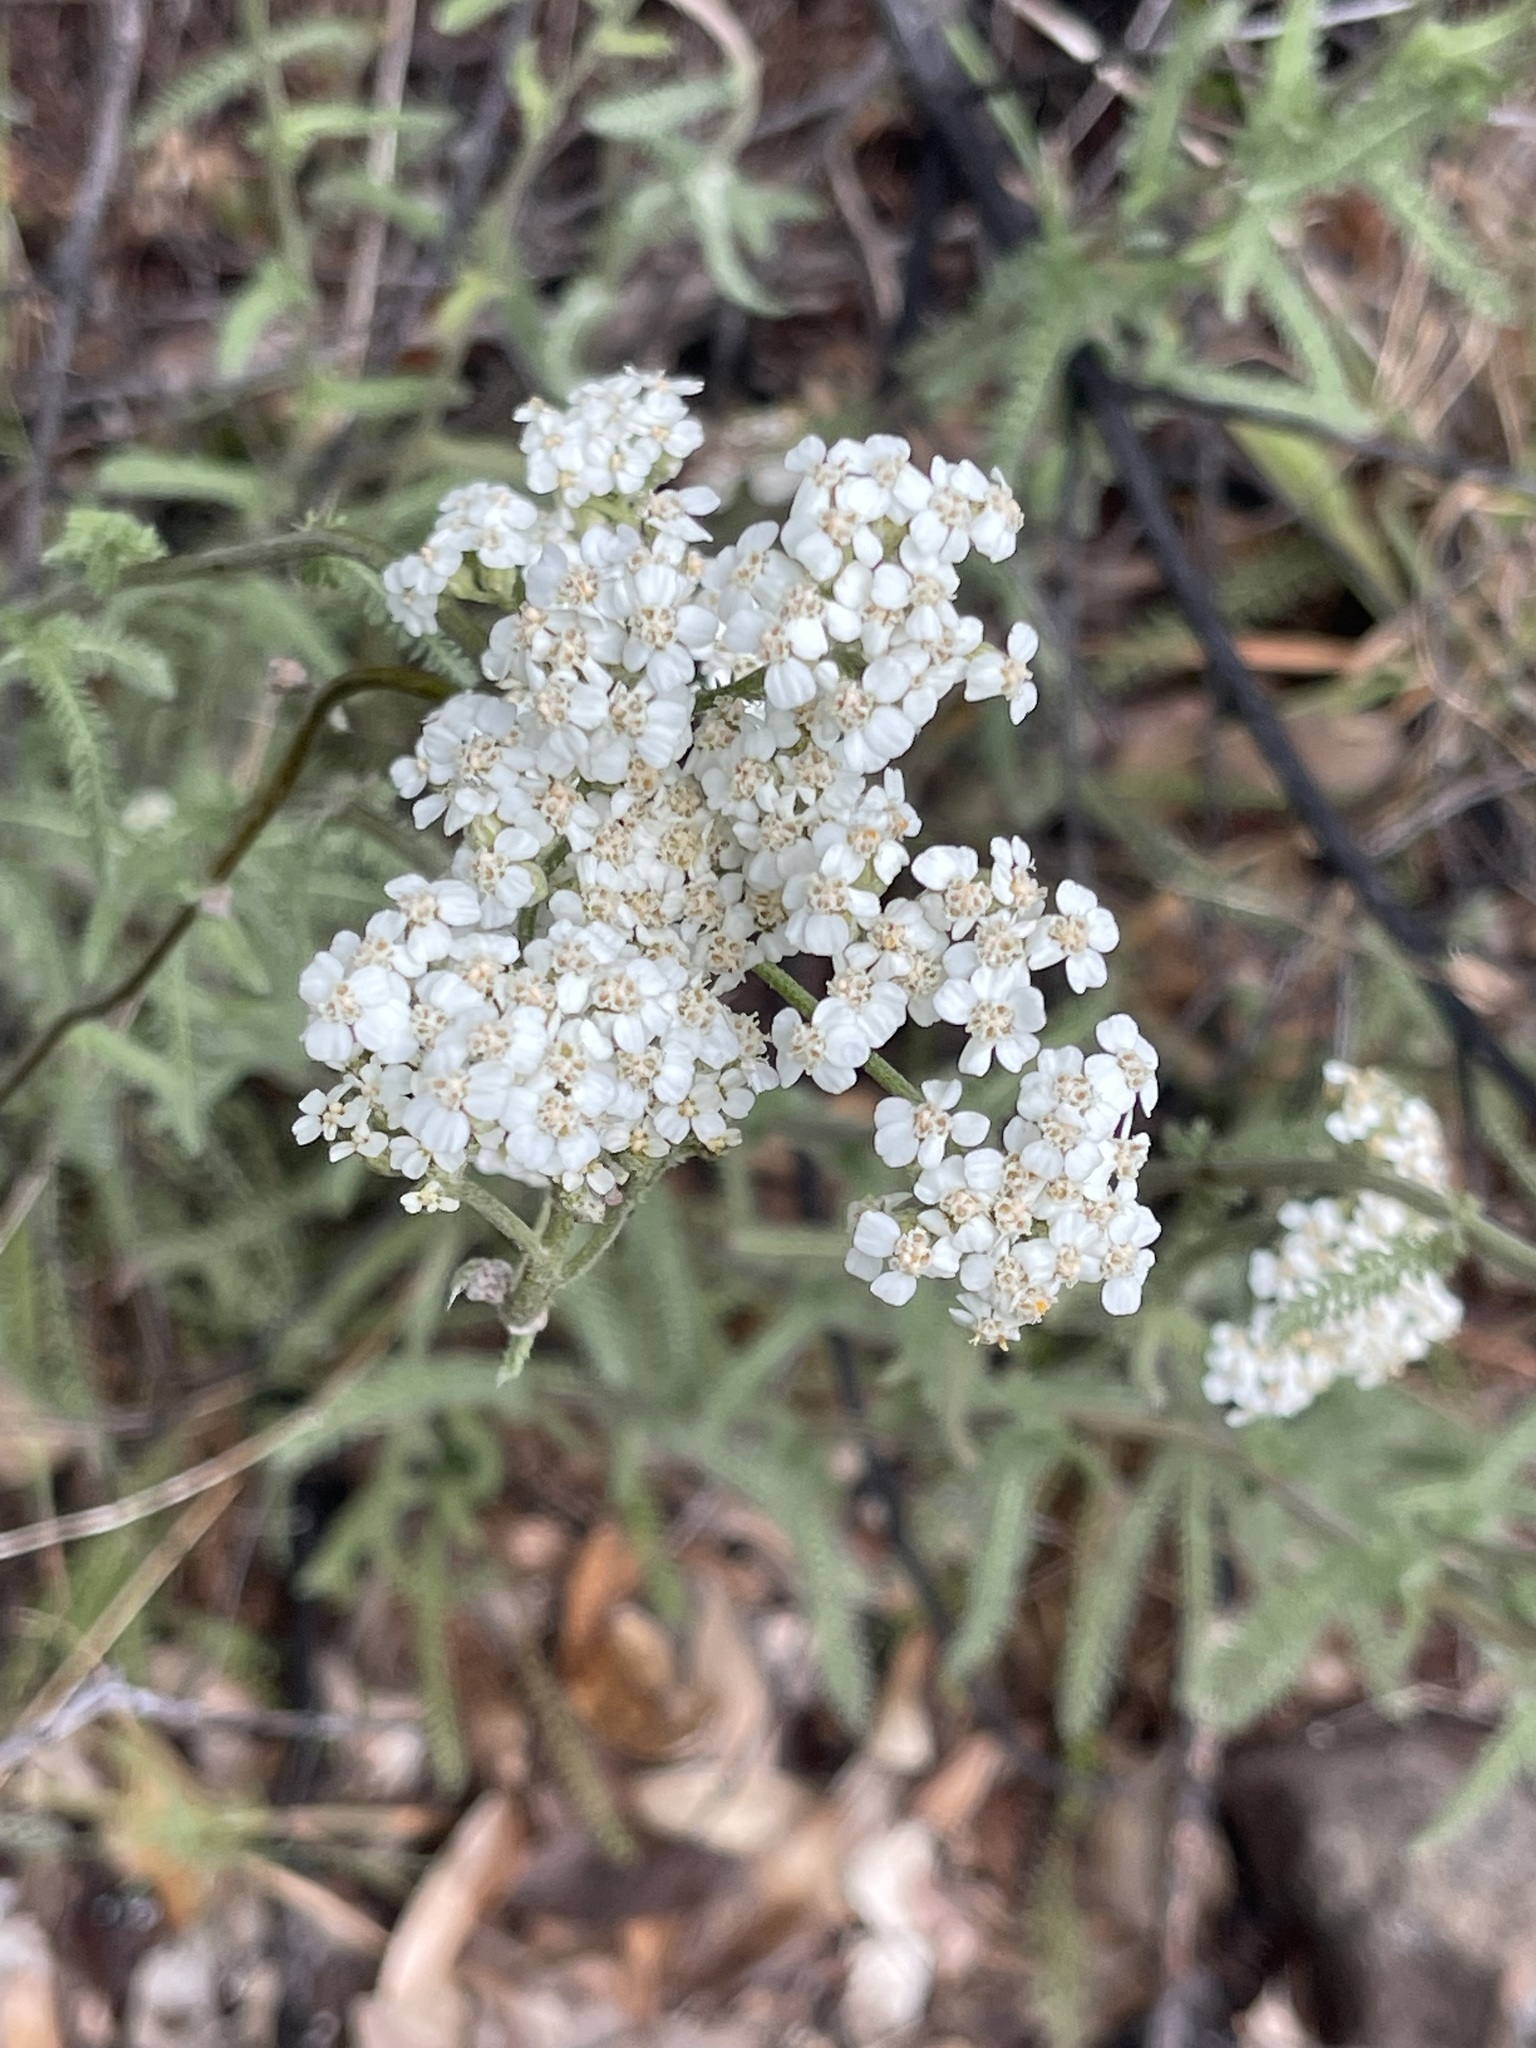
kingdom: Plantae
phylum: Tracheophyta
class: Magnoliopsida
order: Asterales
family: Asteraceae
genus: Achillea
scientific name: Achillea millefolium
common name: Yarrow
